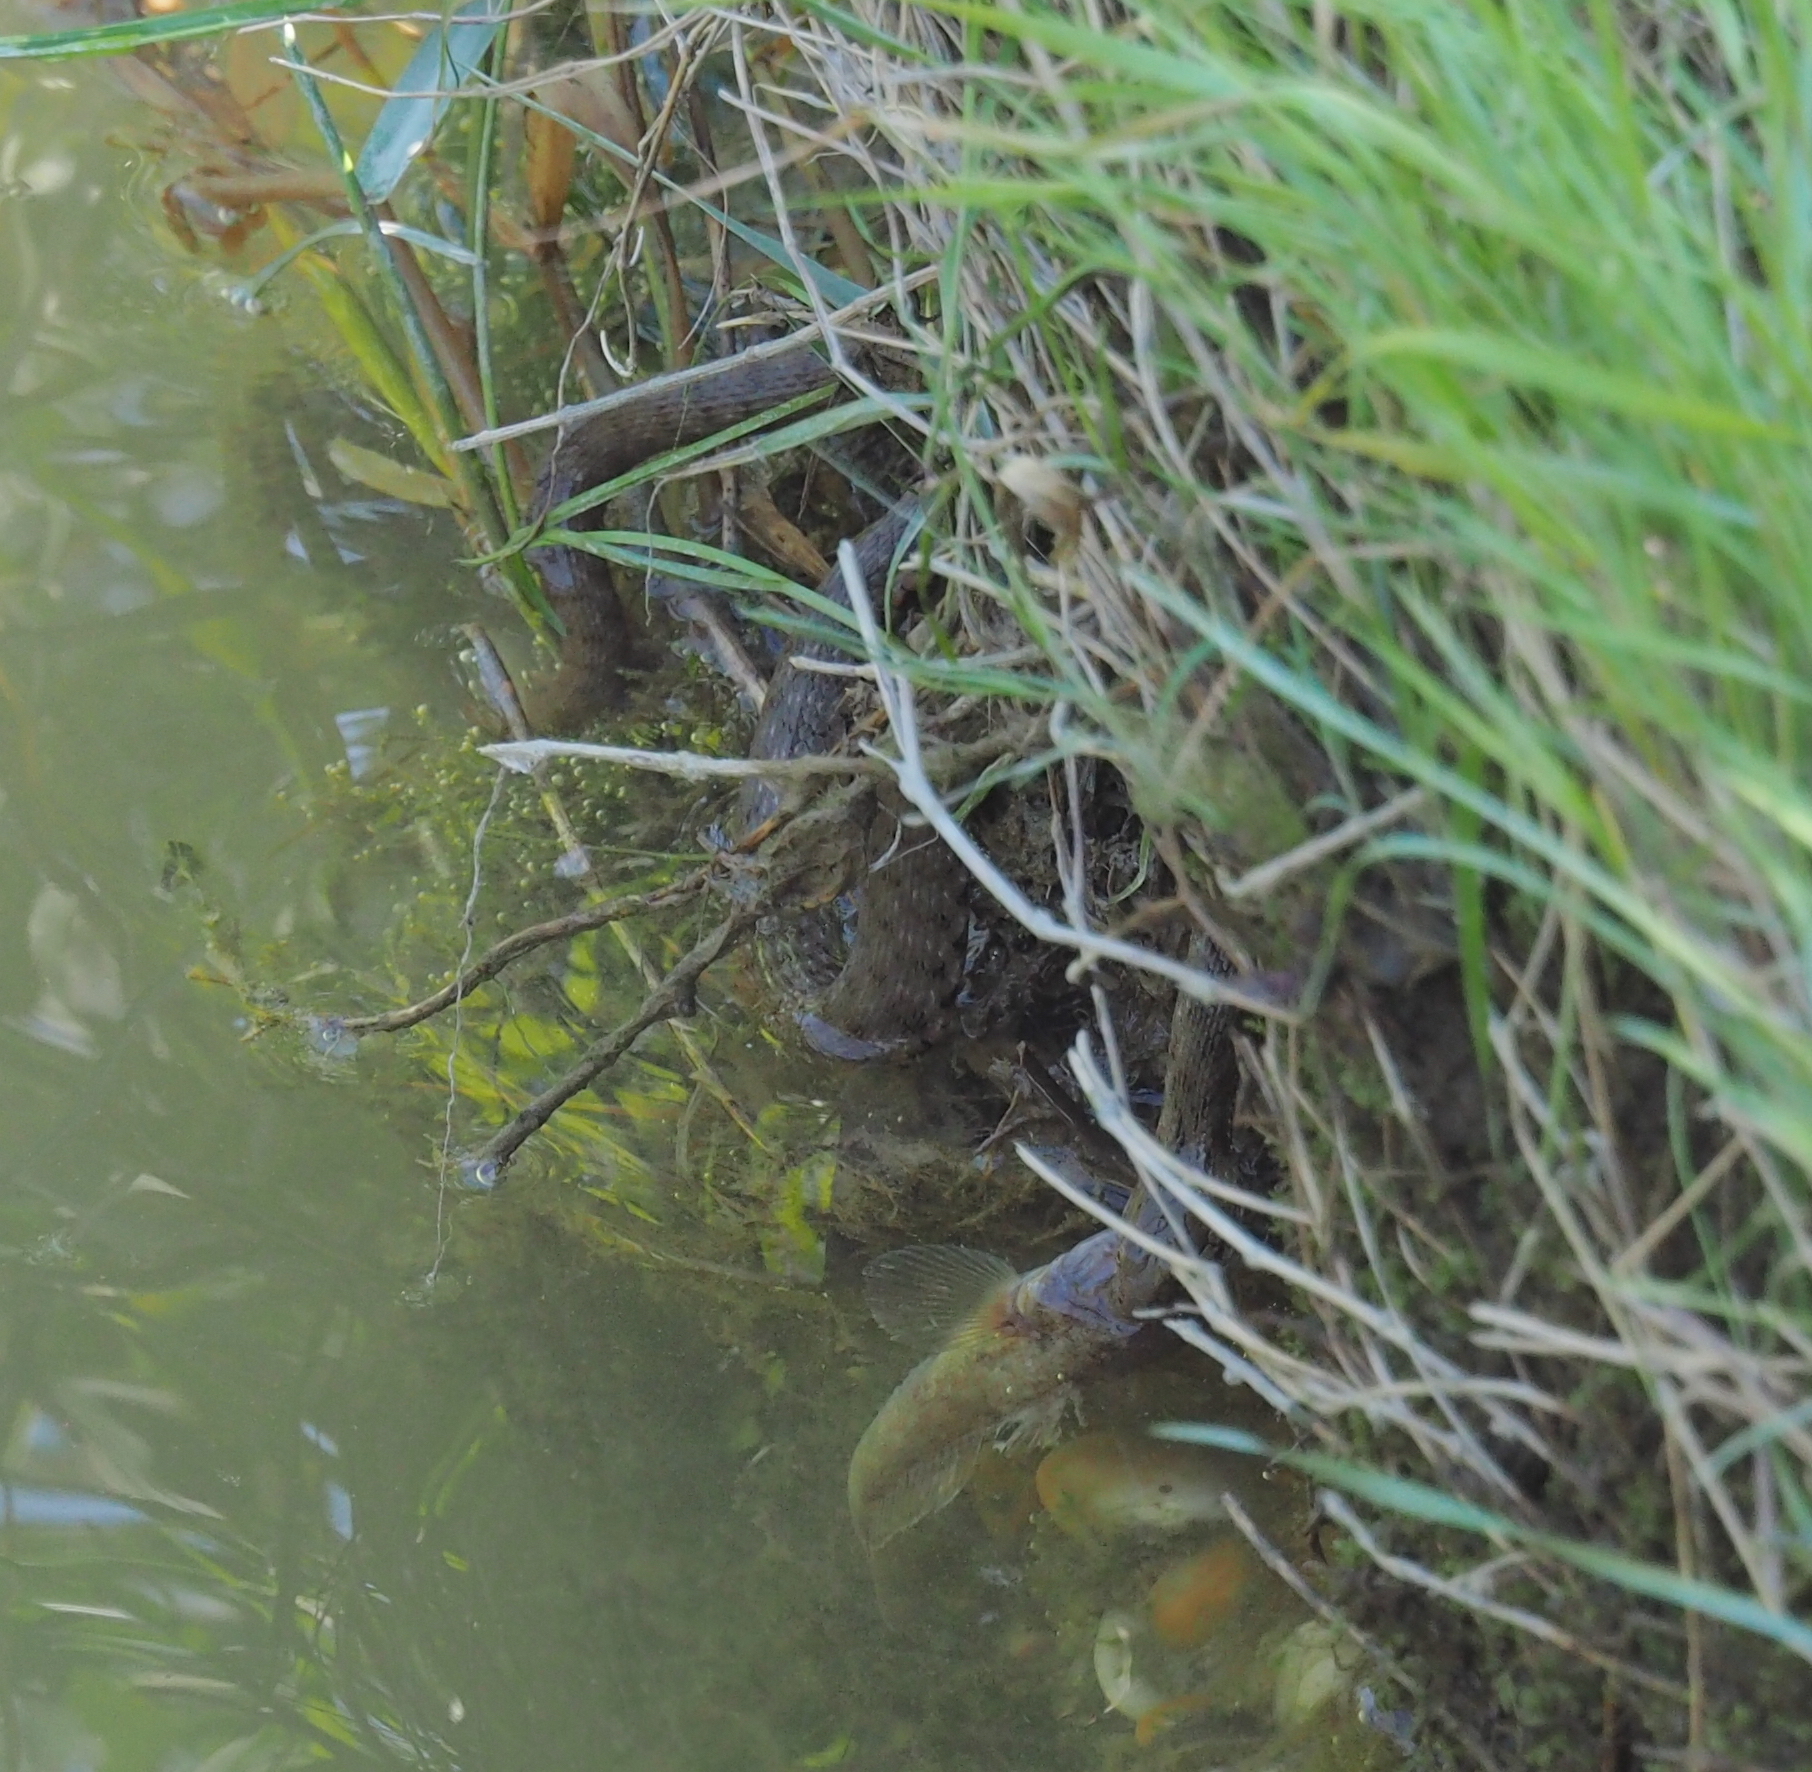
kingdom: Animalia
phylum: Chordata
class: Squamata
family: Colubridae
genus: Natrix
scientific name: Natrix tessellata
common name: Dice snake
